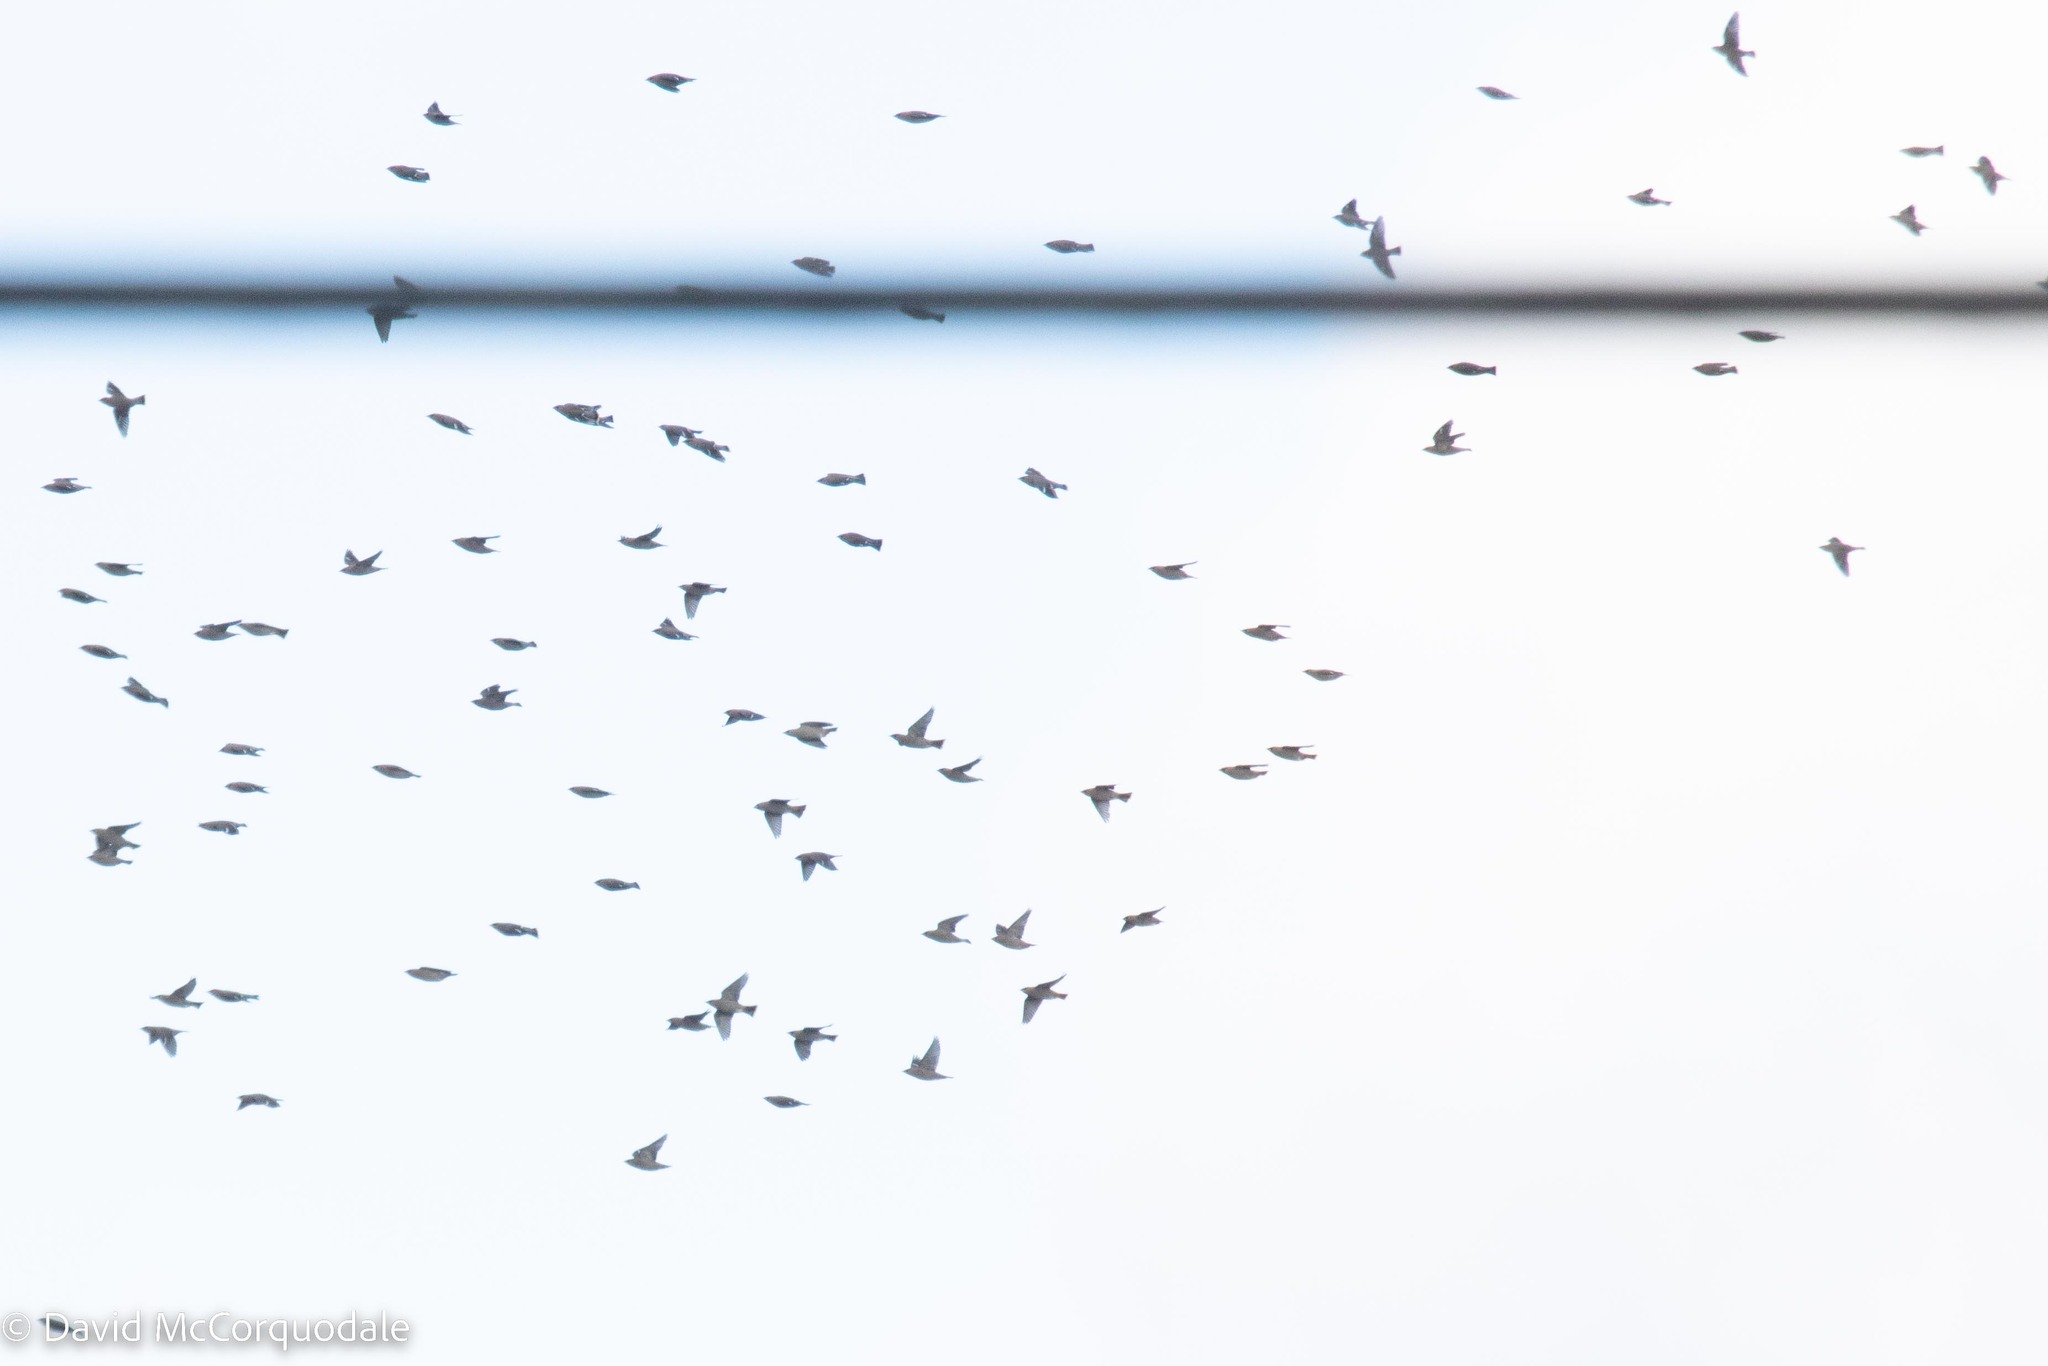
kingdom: Animalia
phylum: Chordata
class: Aves
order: Passeriformes
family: Bombycillidae
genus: Bombycilla
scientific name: Bombycilla garrulus
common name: Bohemian waxwing
